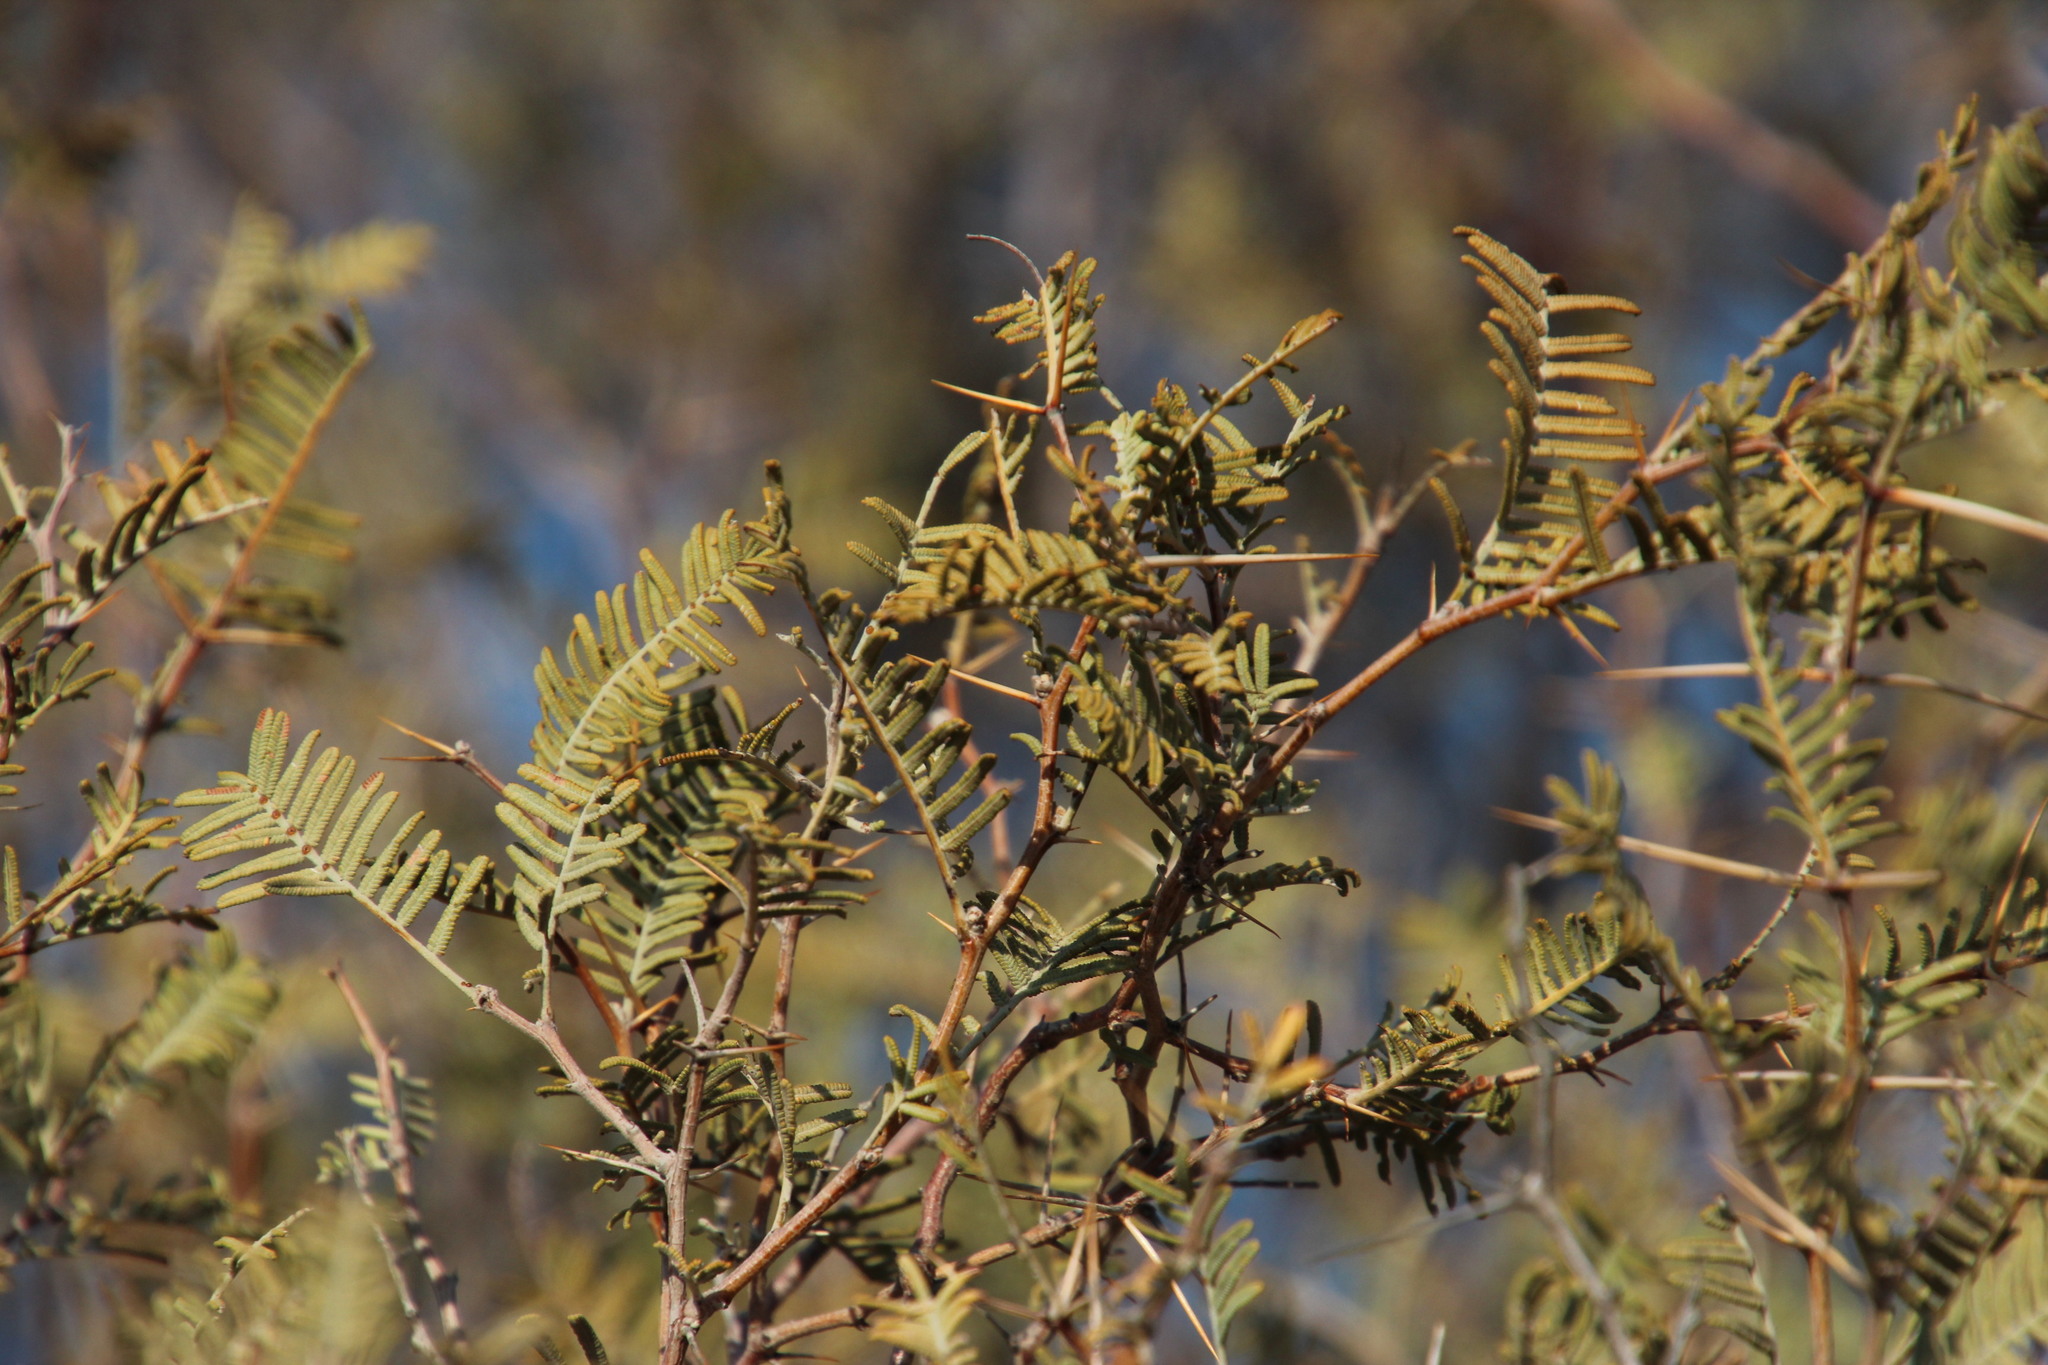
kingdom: Plantae
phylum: Tracheophyta
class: Magnoliopsida
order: Fabales
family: Fabaceae
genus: Vachellia
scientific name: Vachellia haematoxylon
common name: Grey camel thorn
